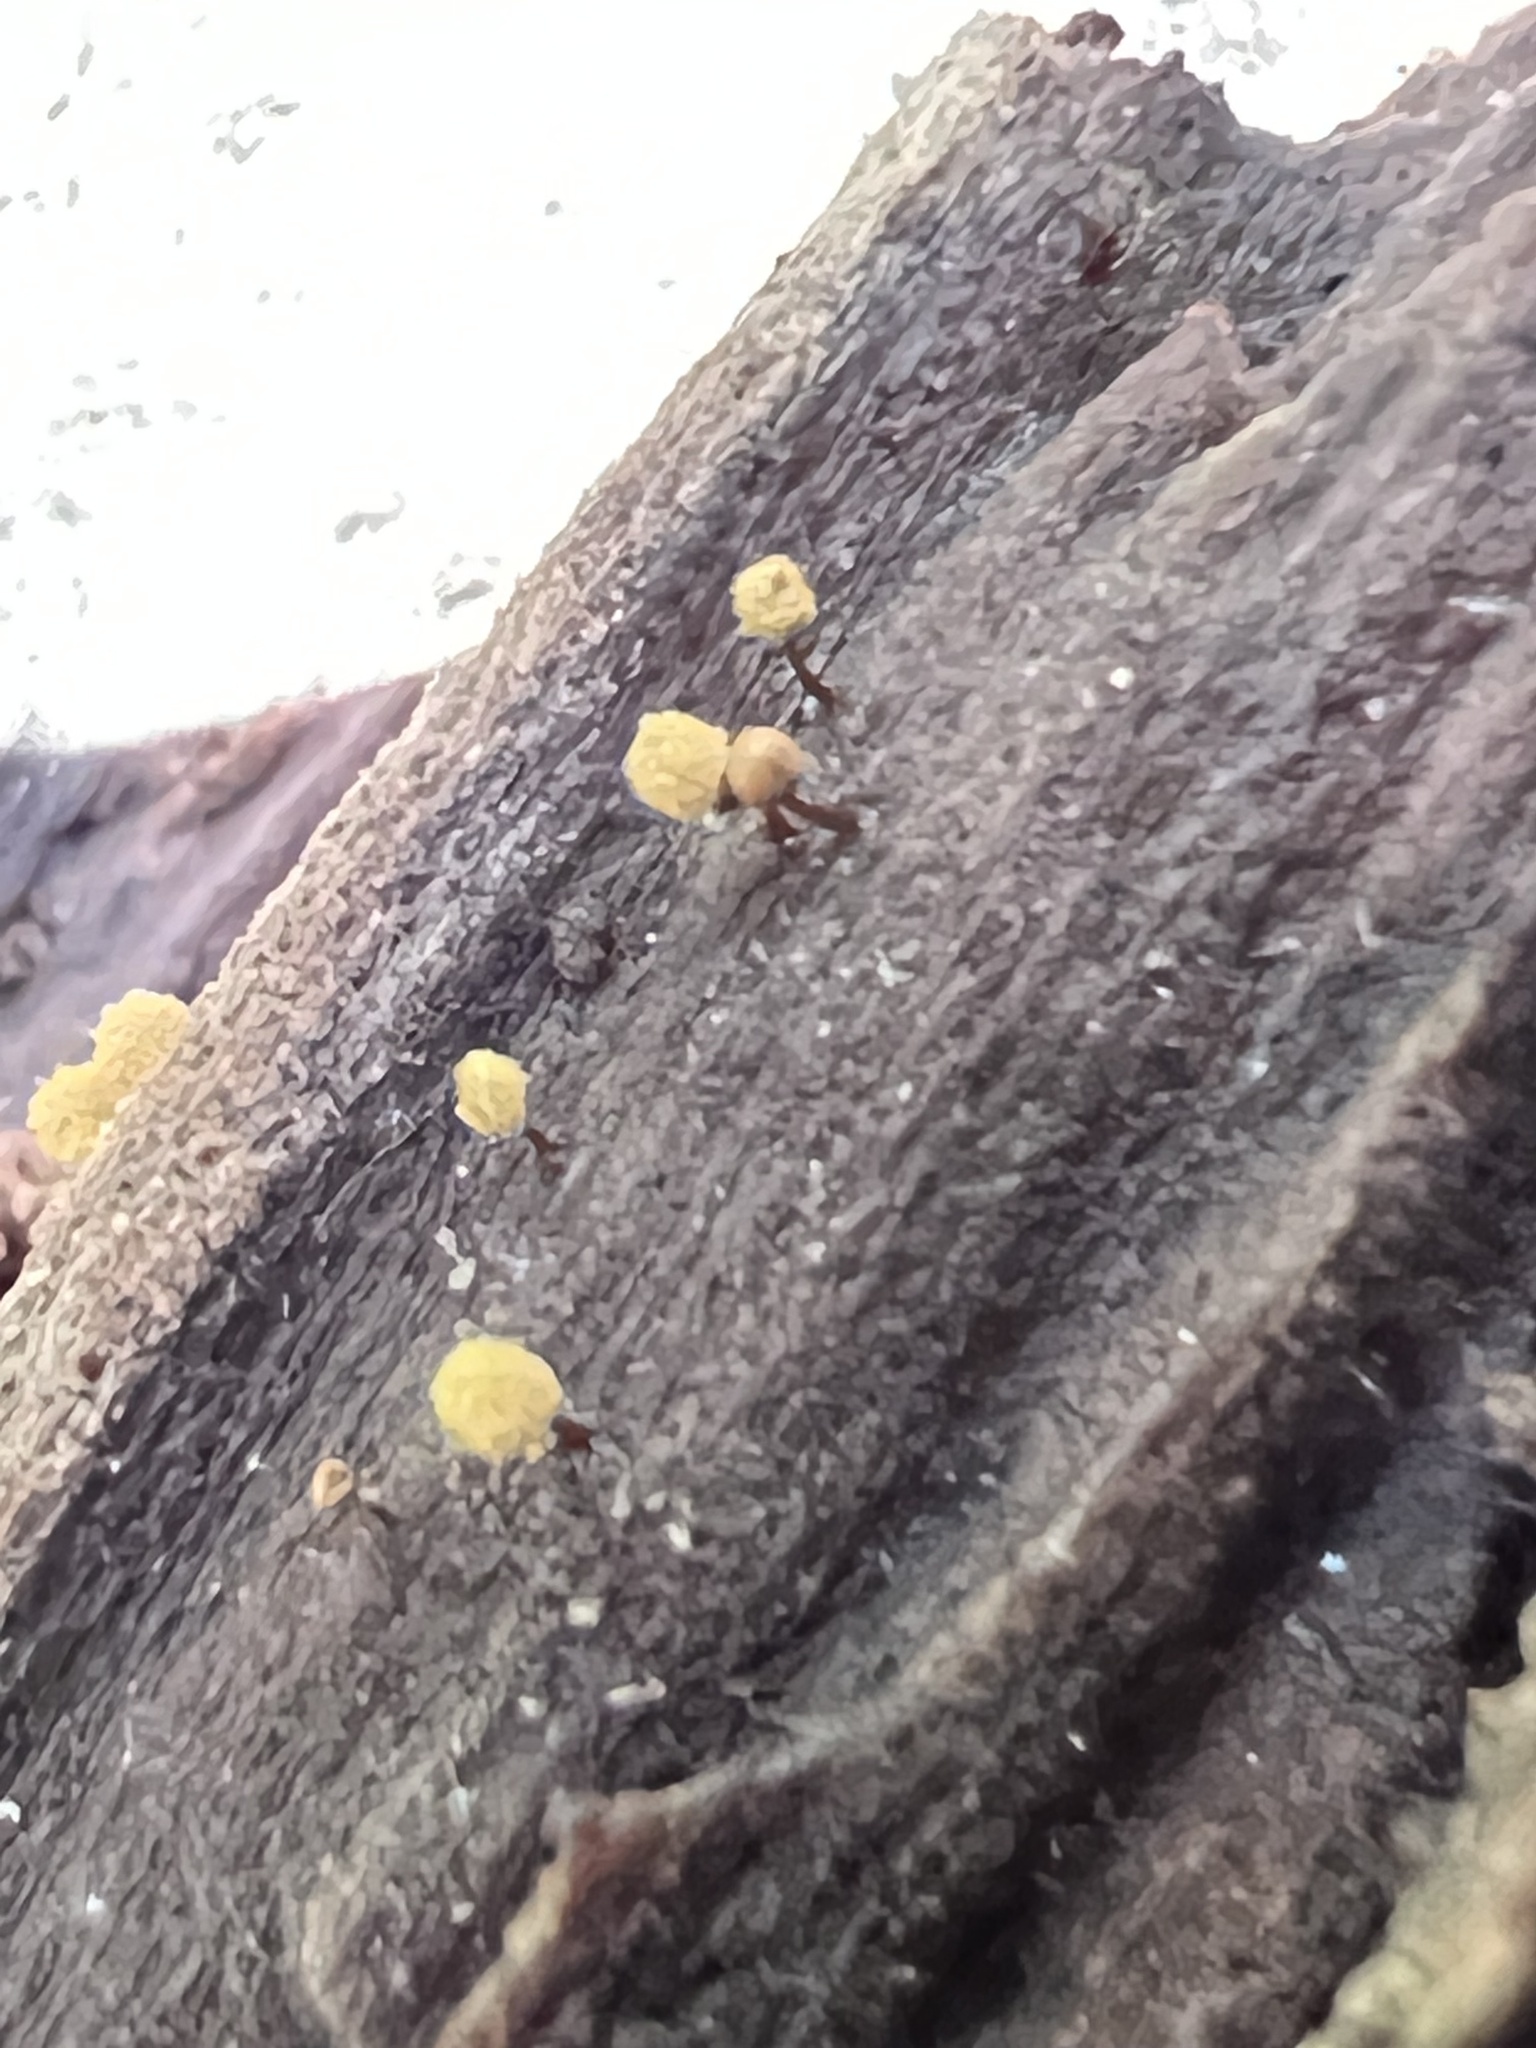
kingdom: Protozoa
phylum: Mycetozoa
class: Myxomycetes
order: Trichiales
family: Arcyriaceae
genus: Hemitrichia
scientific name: Hemitrichia calyculata
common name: Push pin slime mold
